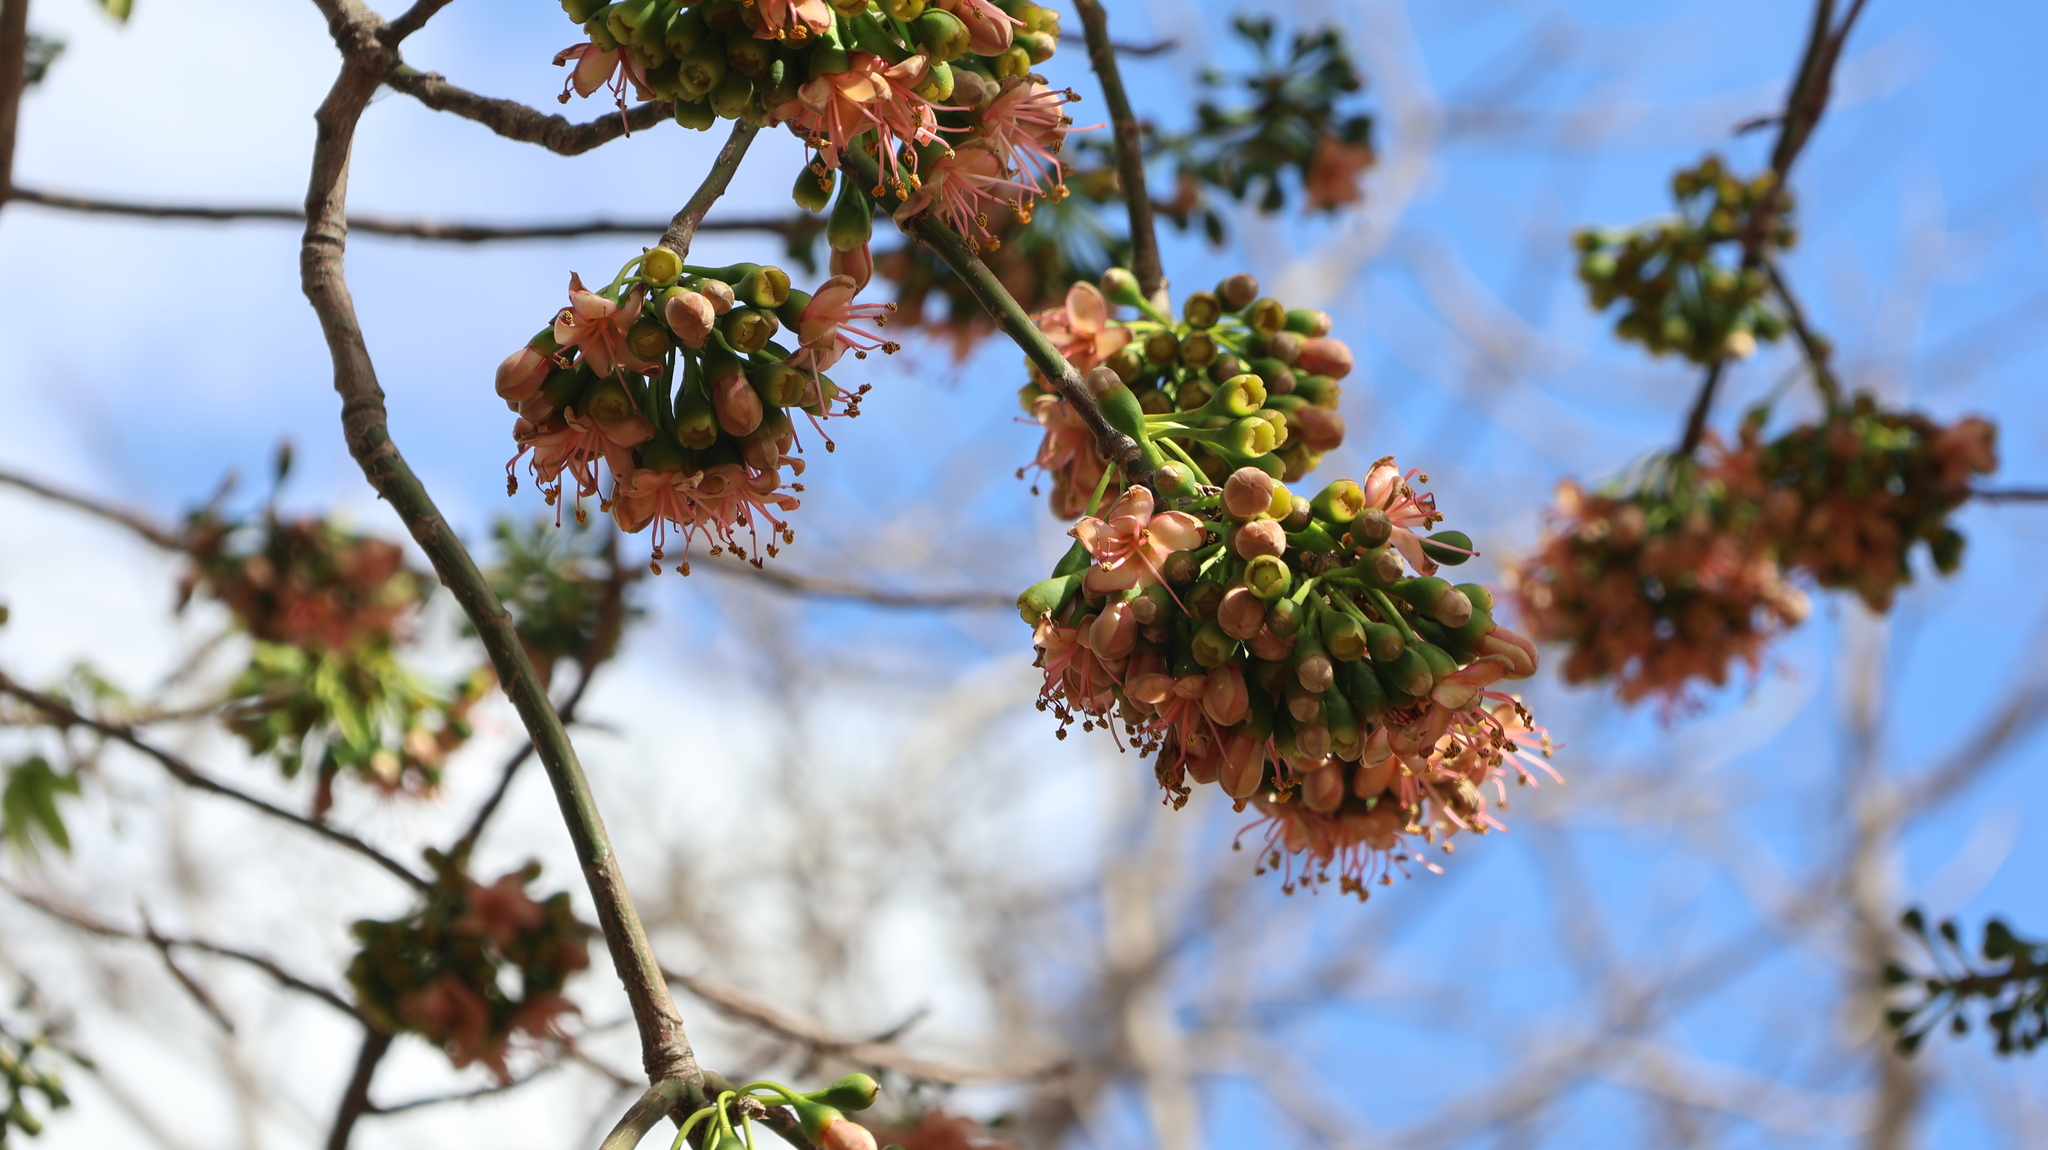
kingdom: Plantae
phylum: Tracheophyta
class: Magnoliopsida
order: Malvales
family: Malvaceae
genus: Ceiba
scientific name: Ceiba pentandra
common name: Kapok
